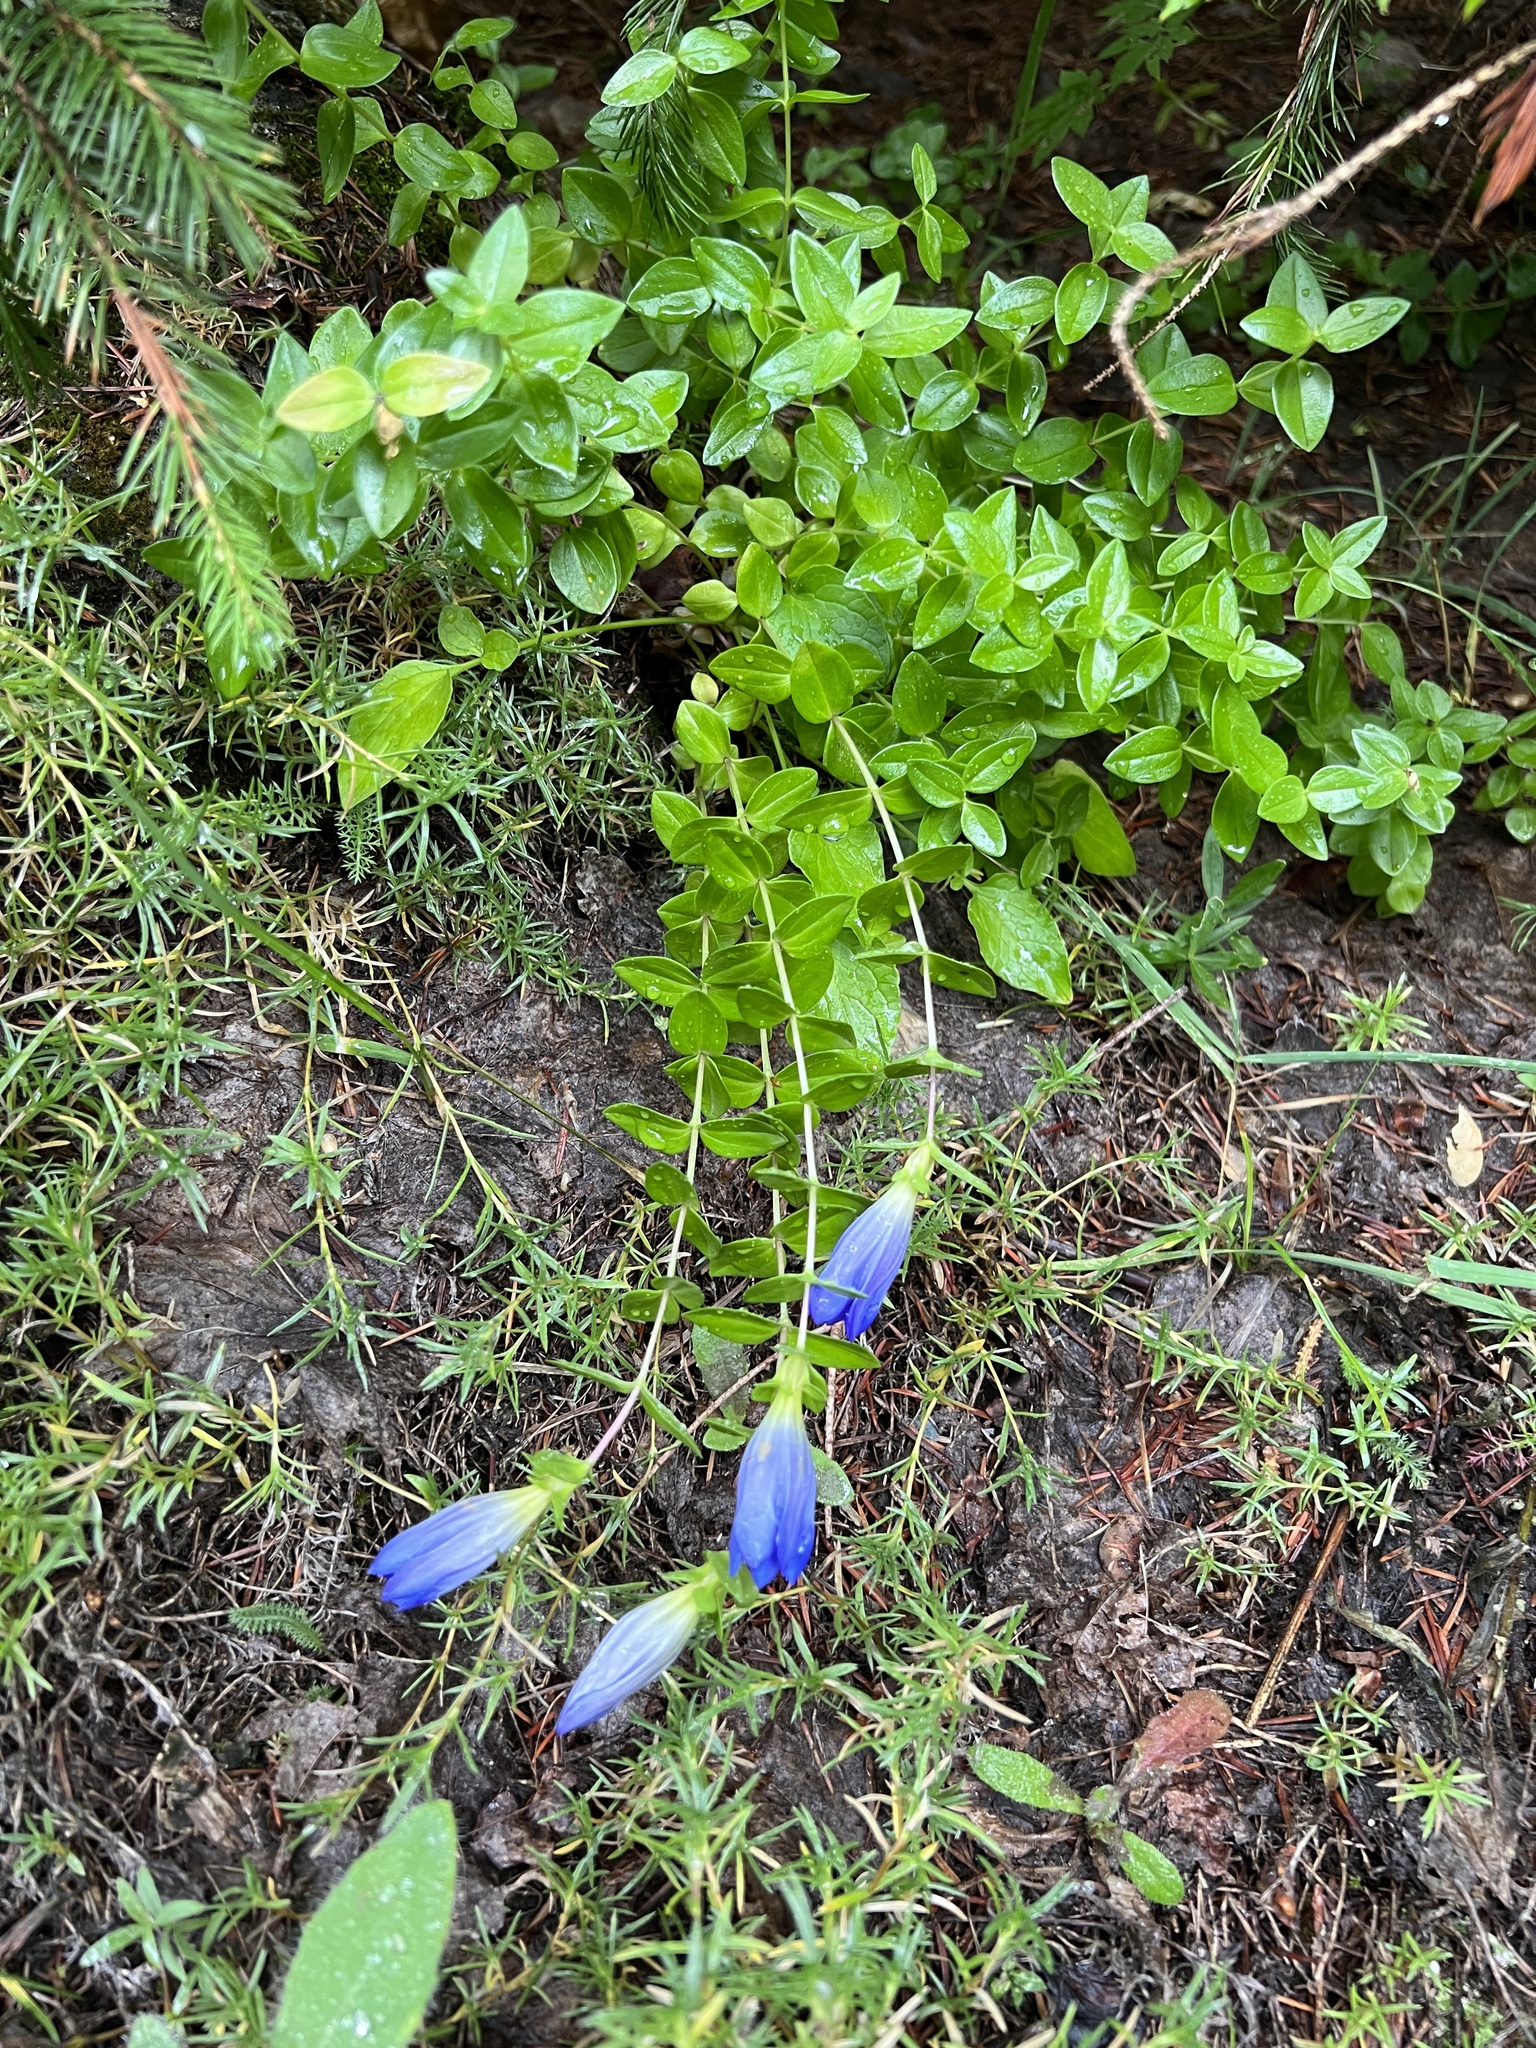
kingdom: Plantae
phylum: Tracheophyta
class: Magnoliopsida
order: Gentianales
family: Gentianaceae
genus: Gentiana
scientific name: Gentiana calycosa
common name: Rainier pleated gentian
